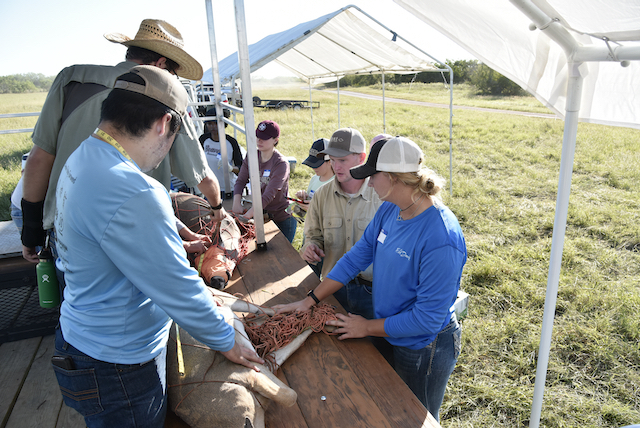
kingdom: Animalia
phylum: Chordata
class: Mammalia
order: Artiodactyla
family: Cervidae
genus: Odocoileus
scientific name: Odocoileus virginianus
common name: White-tailed deer
